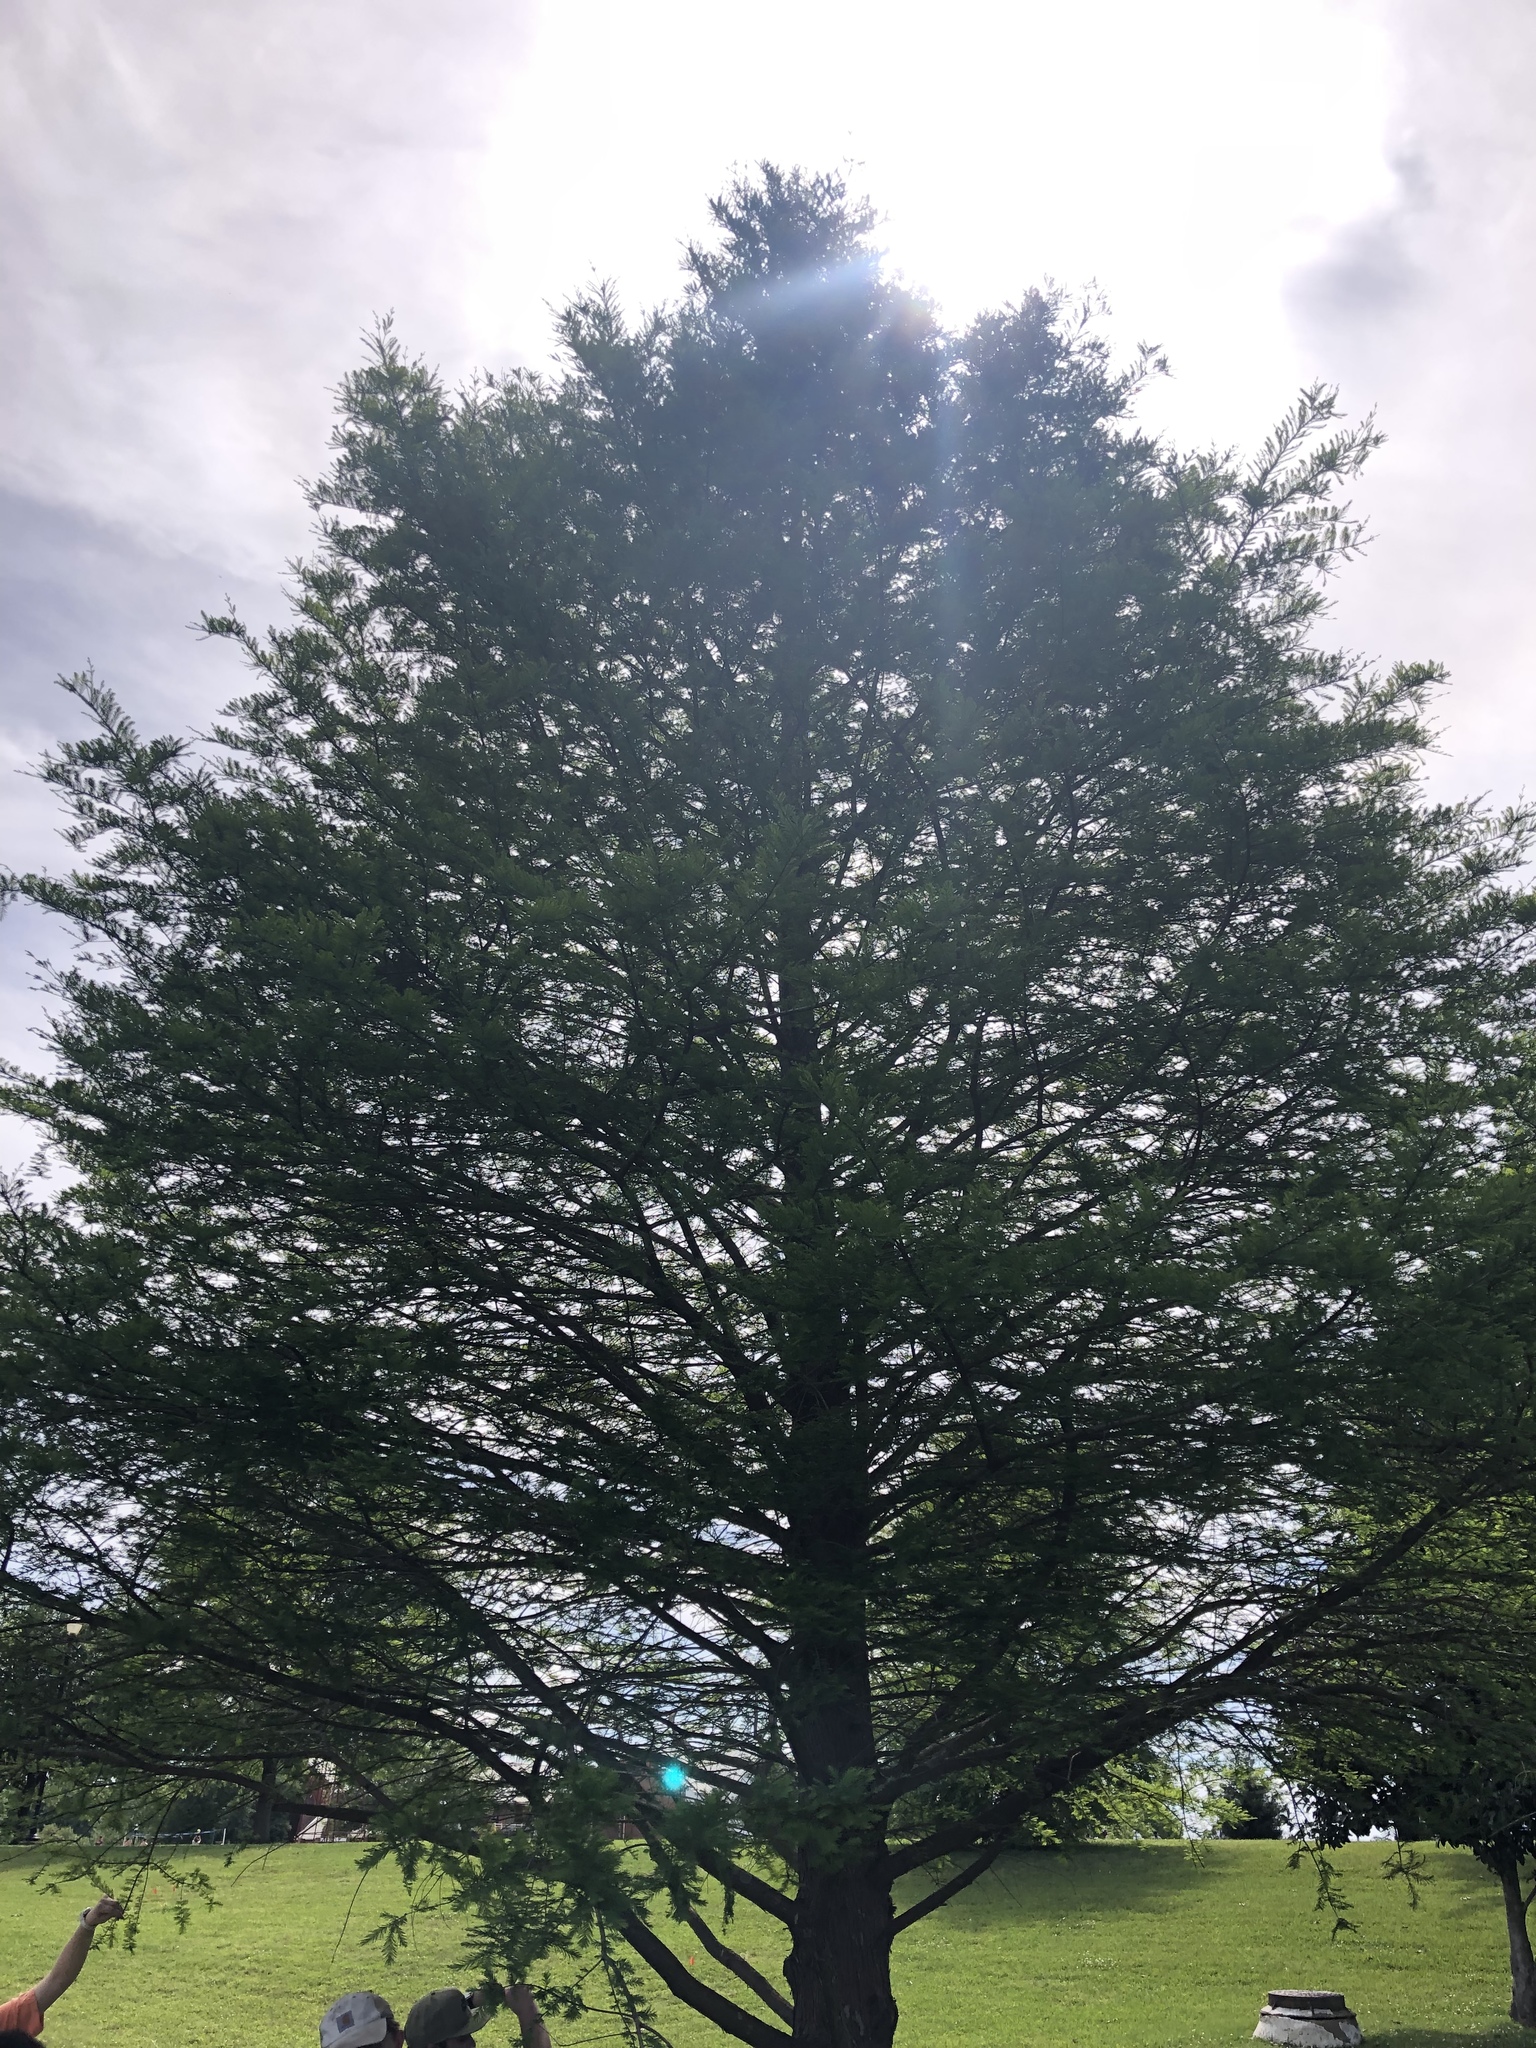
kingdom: Plantae
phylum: Tracheophyta
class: Pinopsida
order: Pinales
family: Cupressaceae
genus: Taxodium
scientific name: Taxodium distichum
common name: Bald cypress
